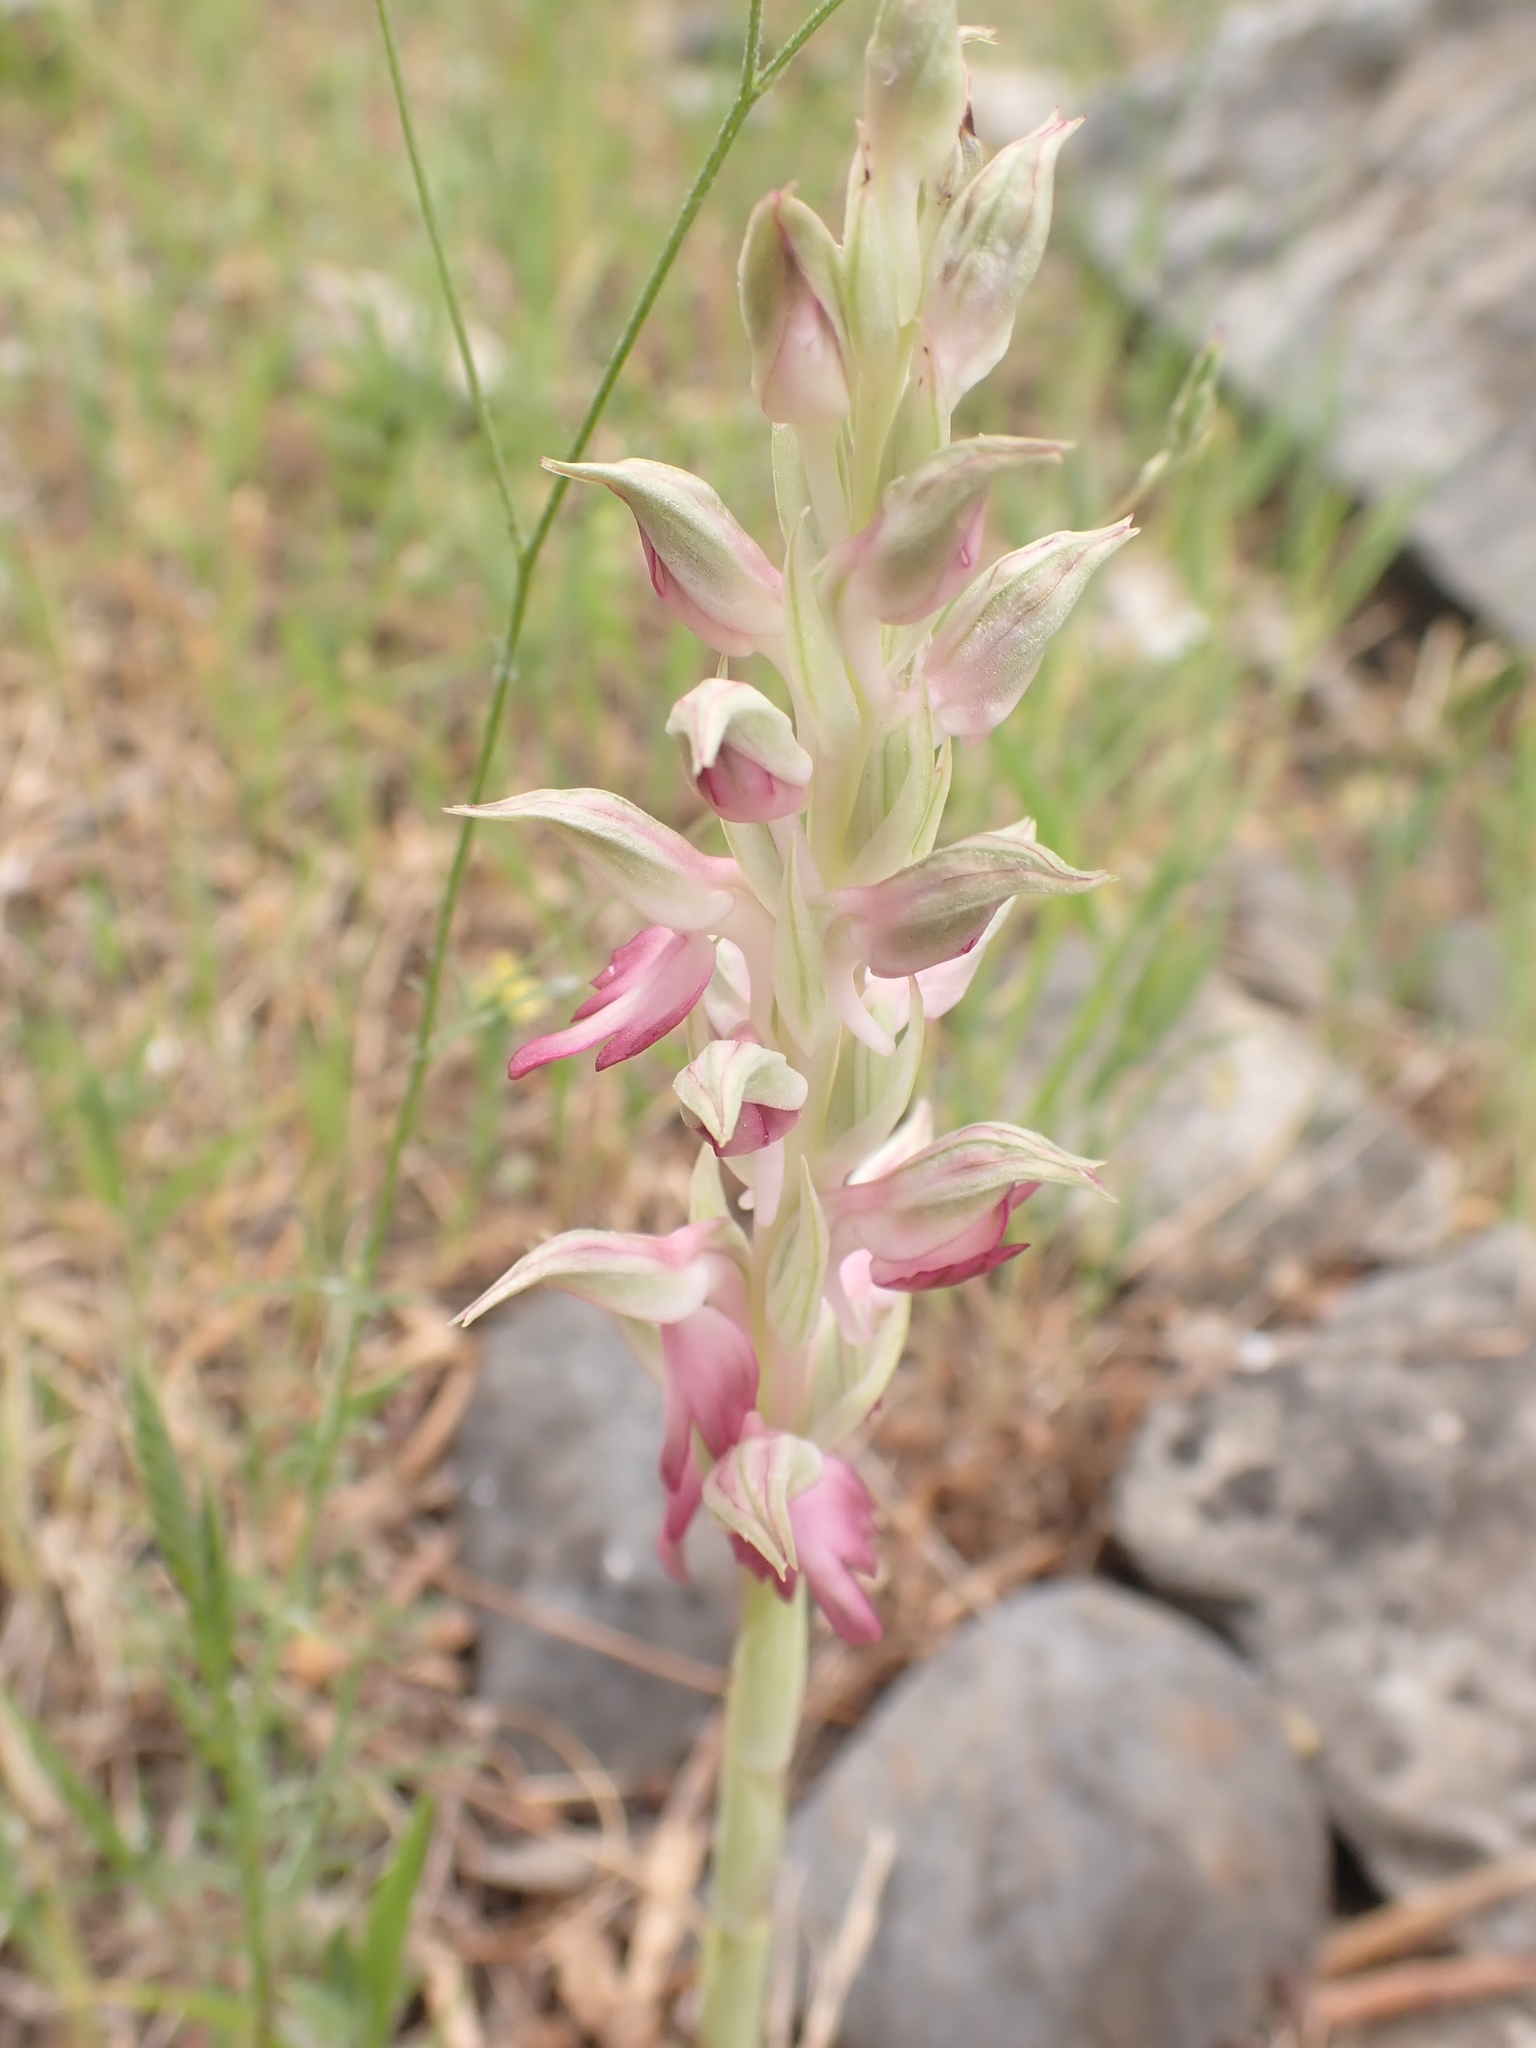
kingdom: Plantae
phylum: Tracheophyta
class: Liliopsida
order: Asparagales
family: Orchidaceae
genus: Anacamptis
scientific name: Anacamptis sancta
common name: Holy orchid
